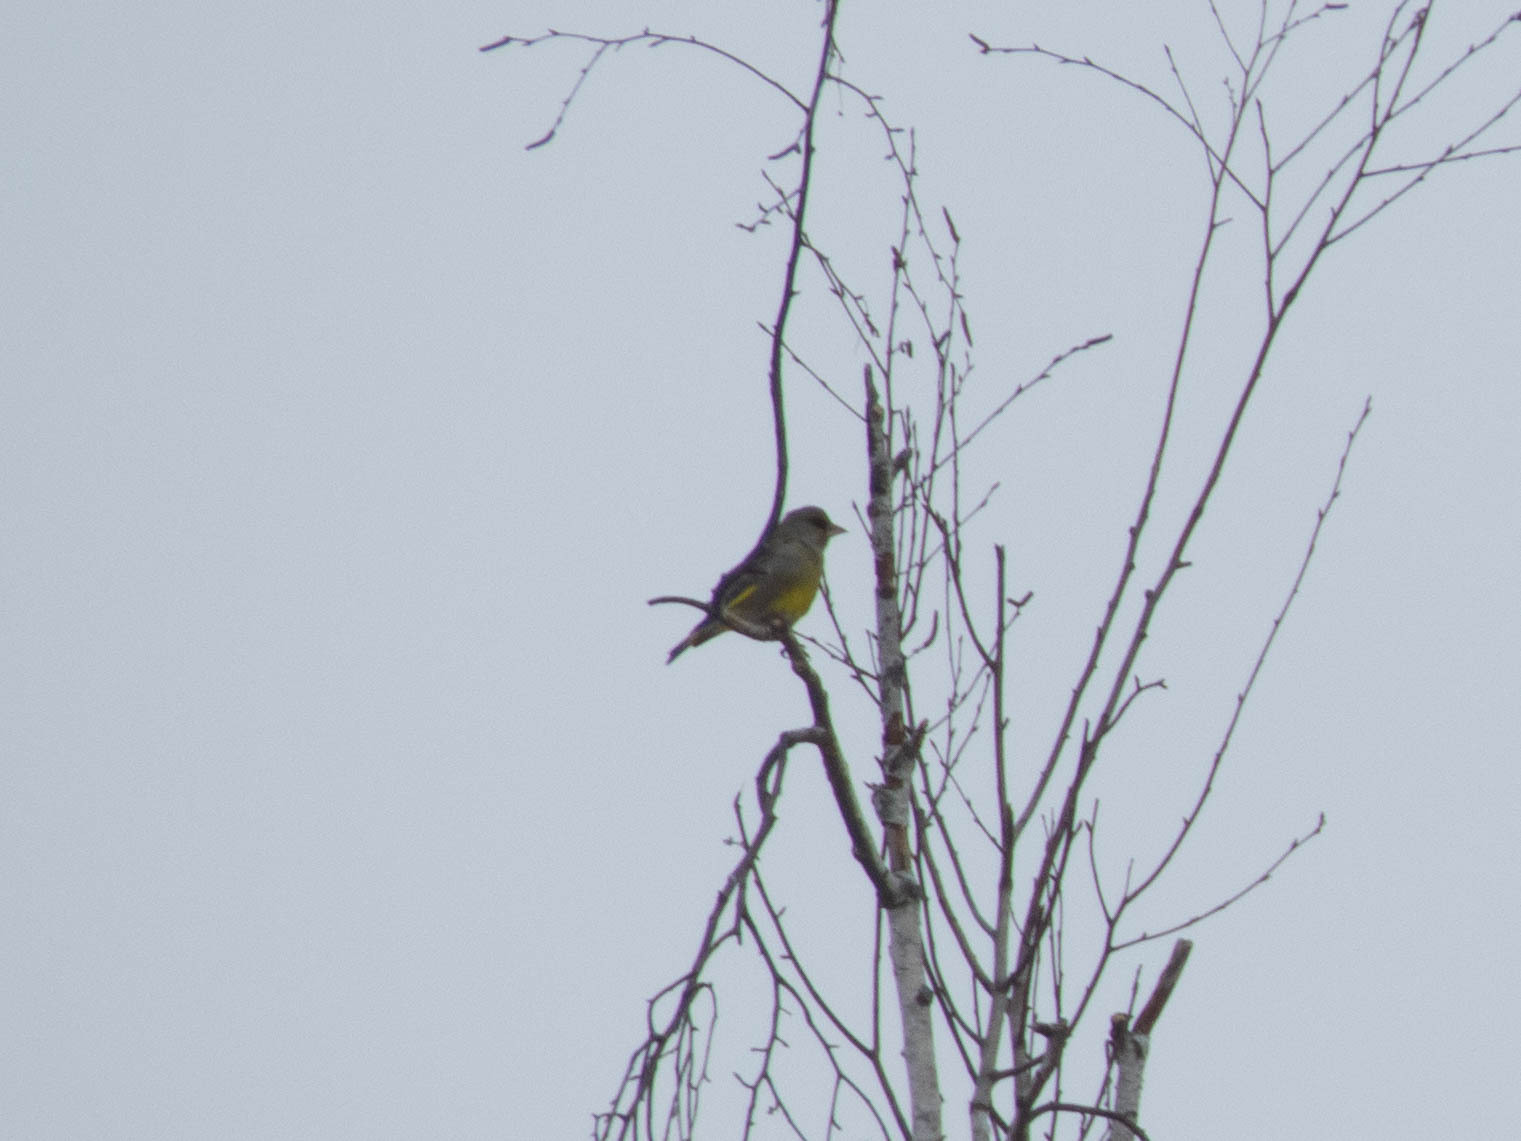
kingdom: Plantae
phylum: Tracheophyta
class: Liliopsida
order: Poales
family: Poaceae
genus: Chloris
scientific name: Chloris chloris
